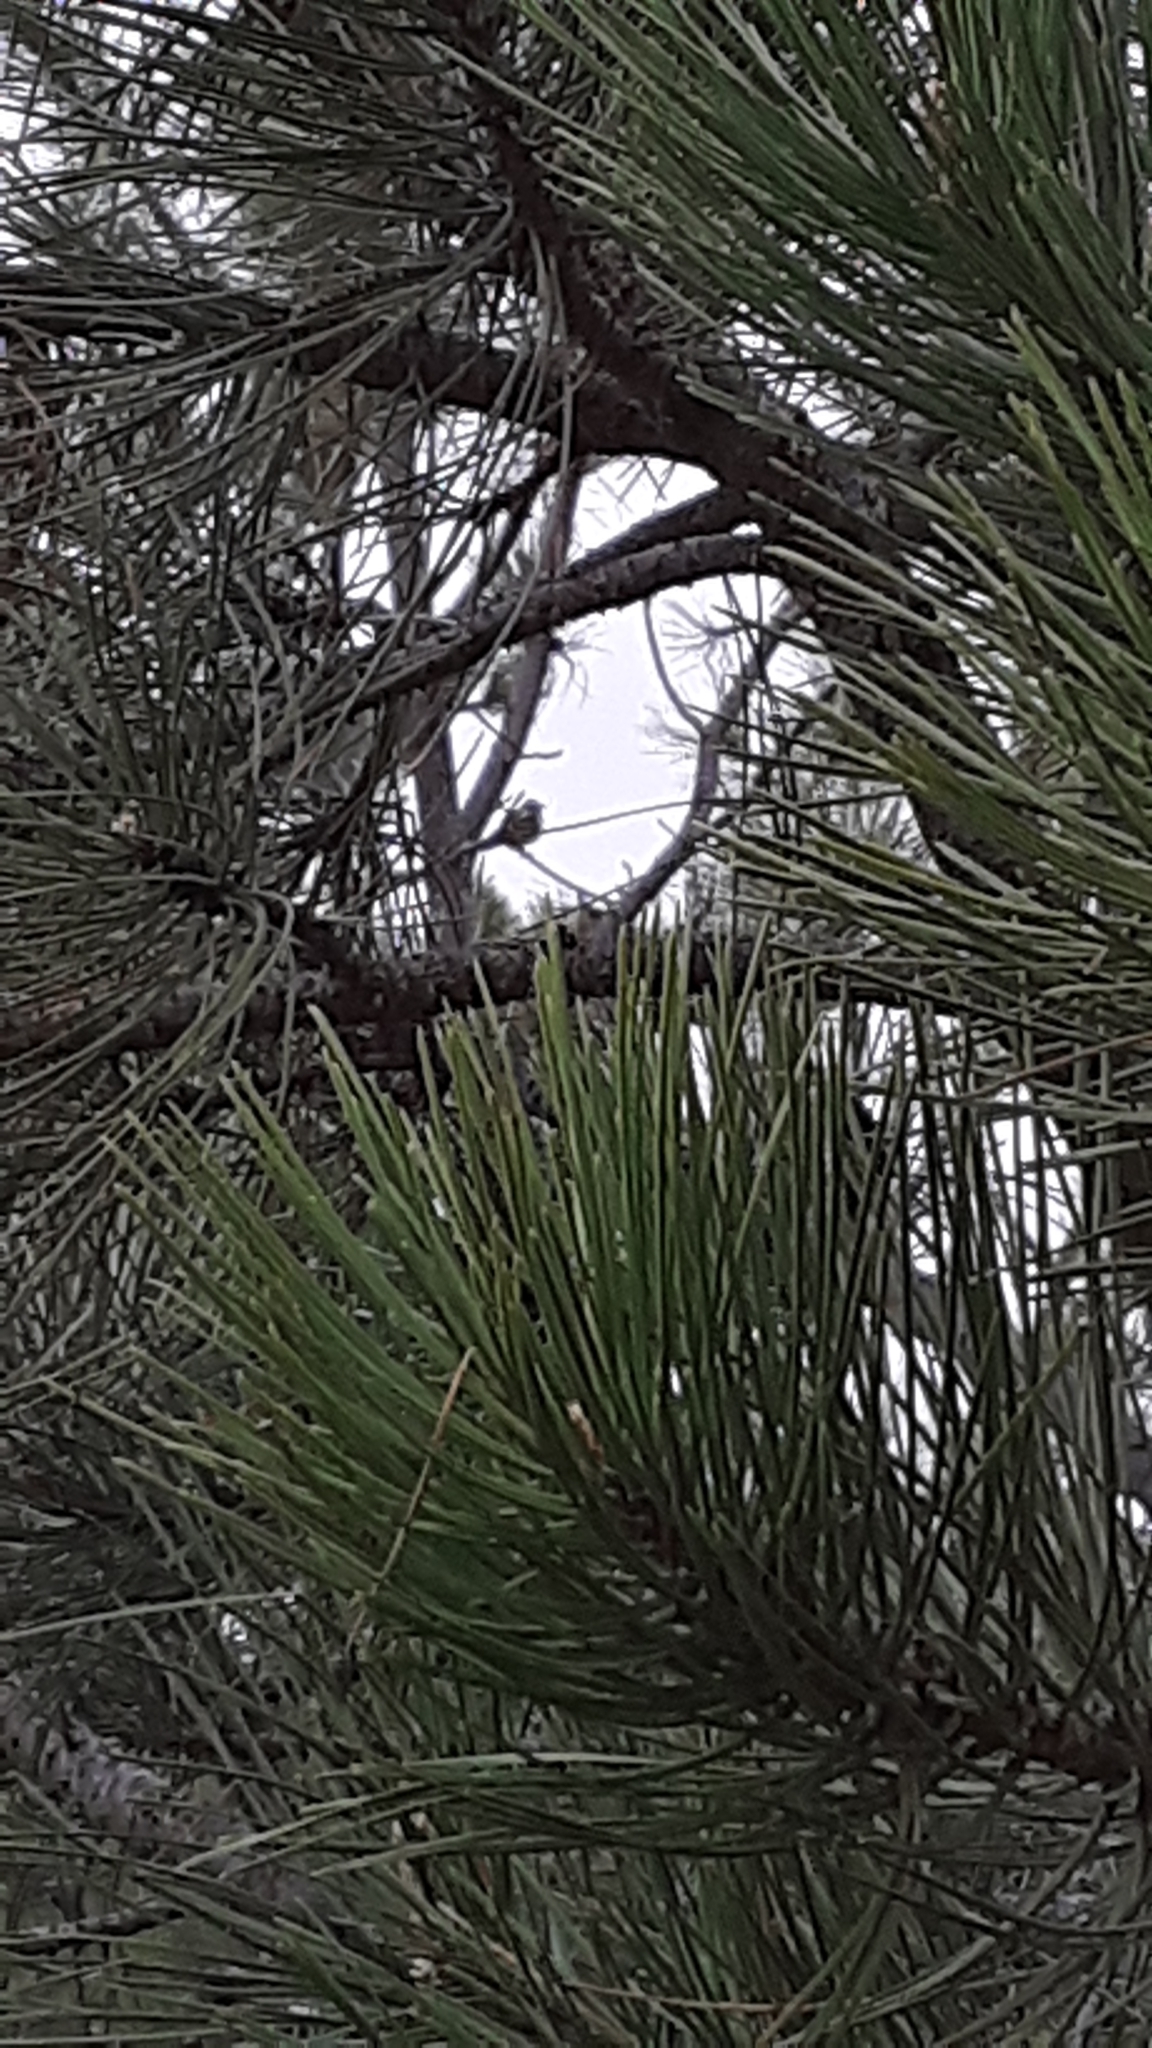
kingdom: Animalia
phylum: Chordata
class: Aves
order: Passeriformes
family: Passerellidae
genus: Chondestes
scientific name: Chondestes grammacus
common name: Lark sparrow
